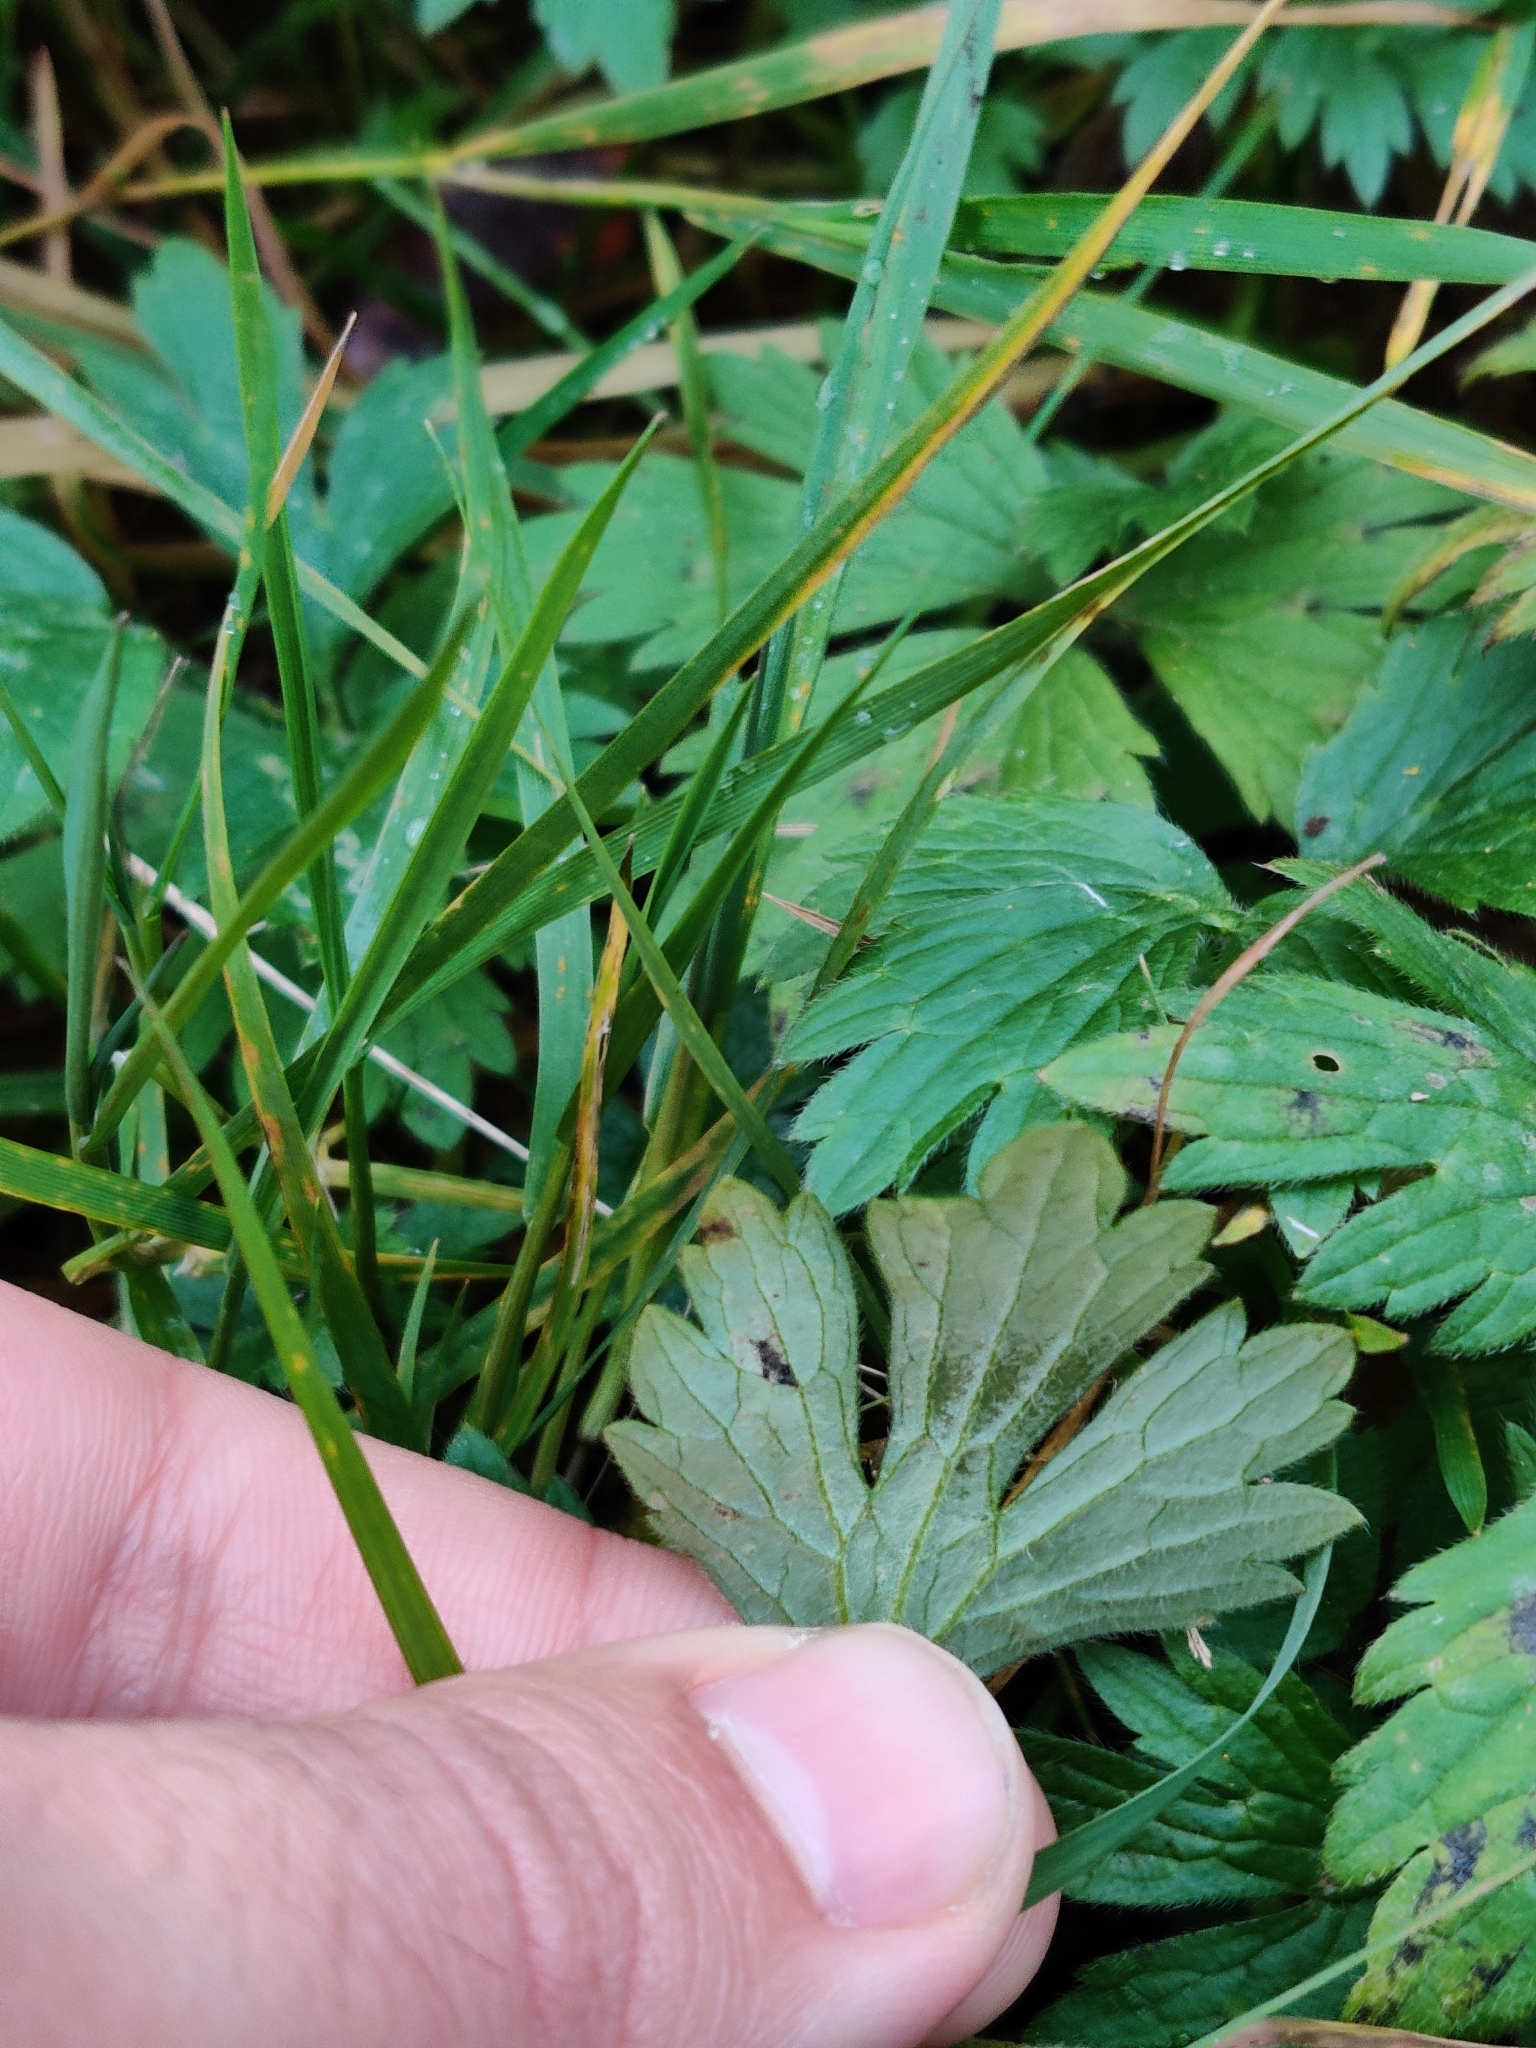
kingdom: Plantae
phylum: Tracheophyta
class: Magnoliopsida
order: Ranunculales
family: Ranunculaceae
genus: Ranunculus
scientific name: Ranunculus repens
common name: Creeping buttercup
